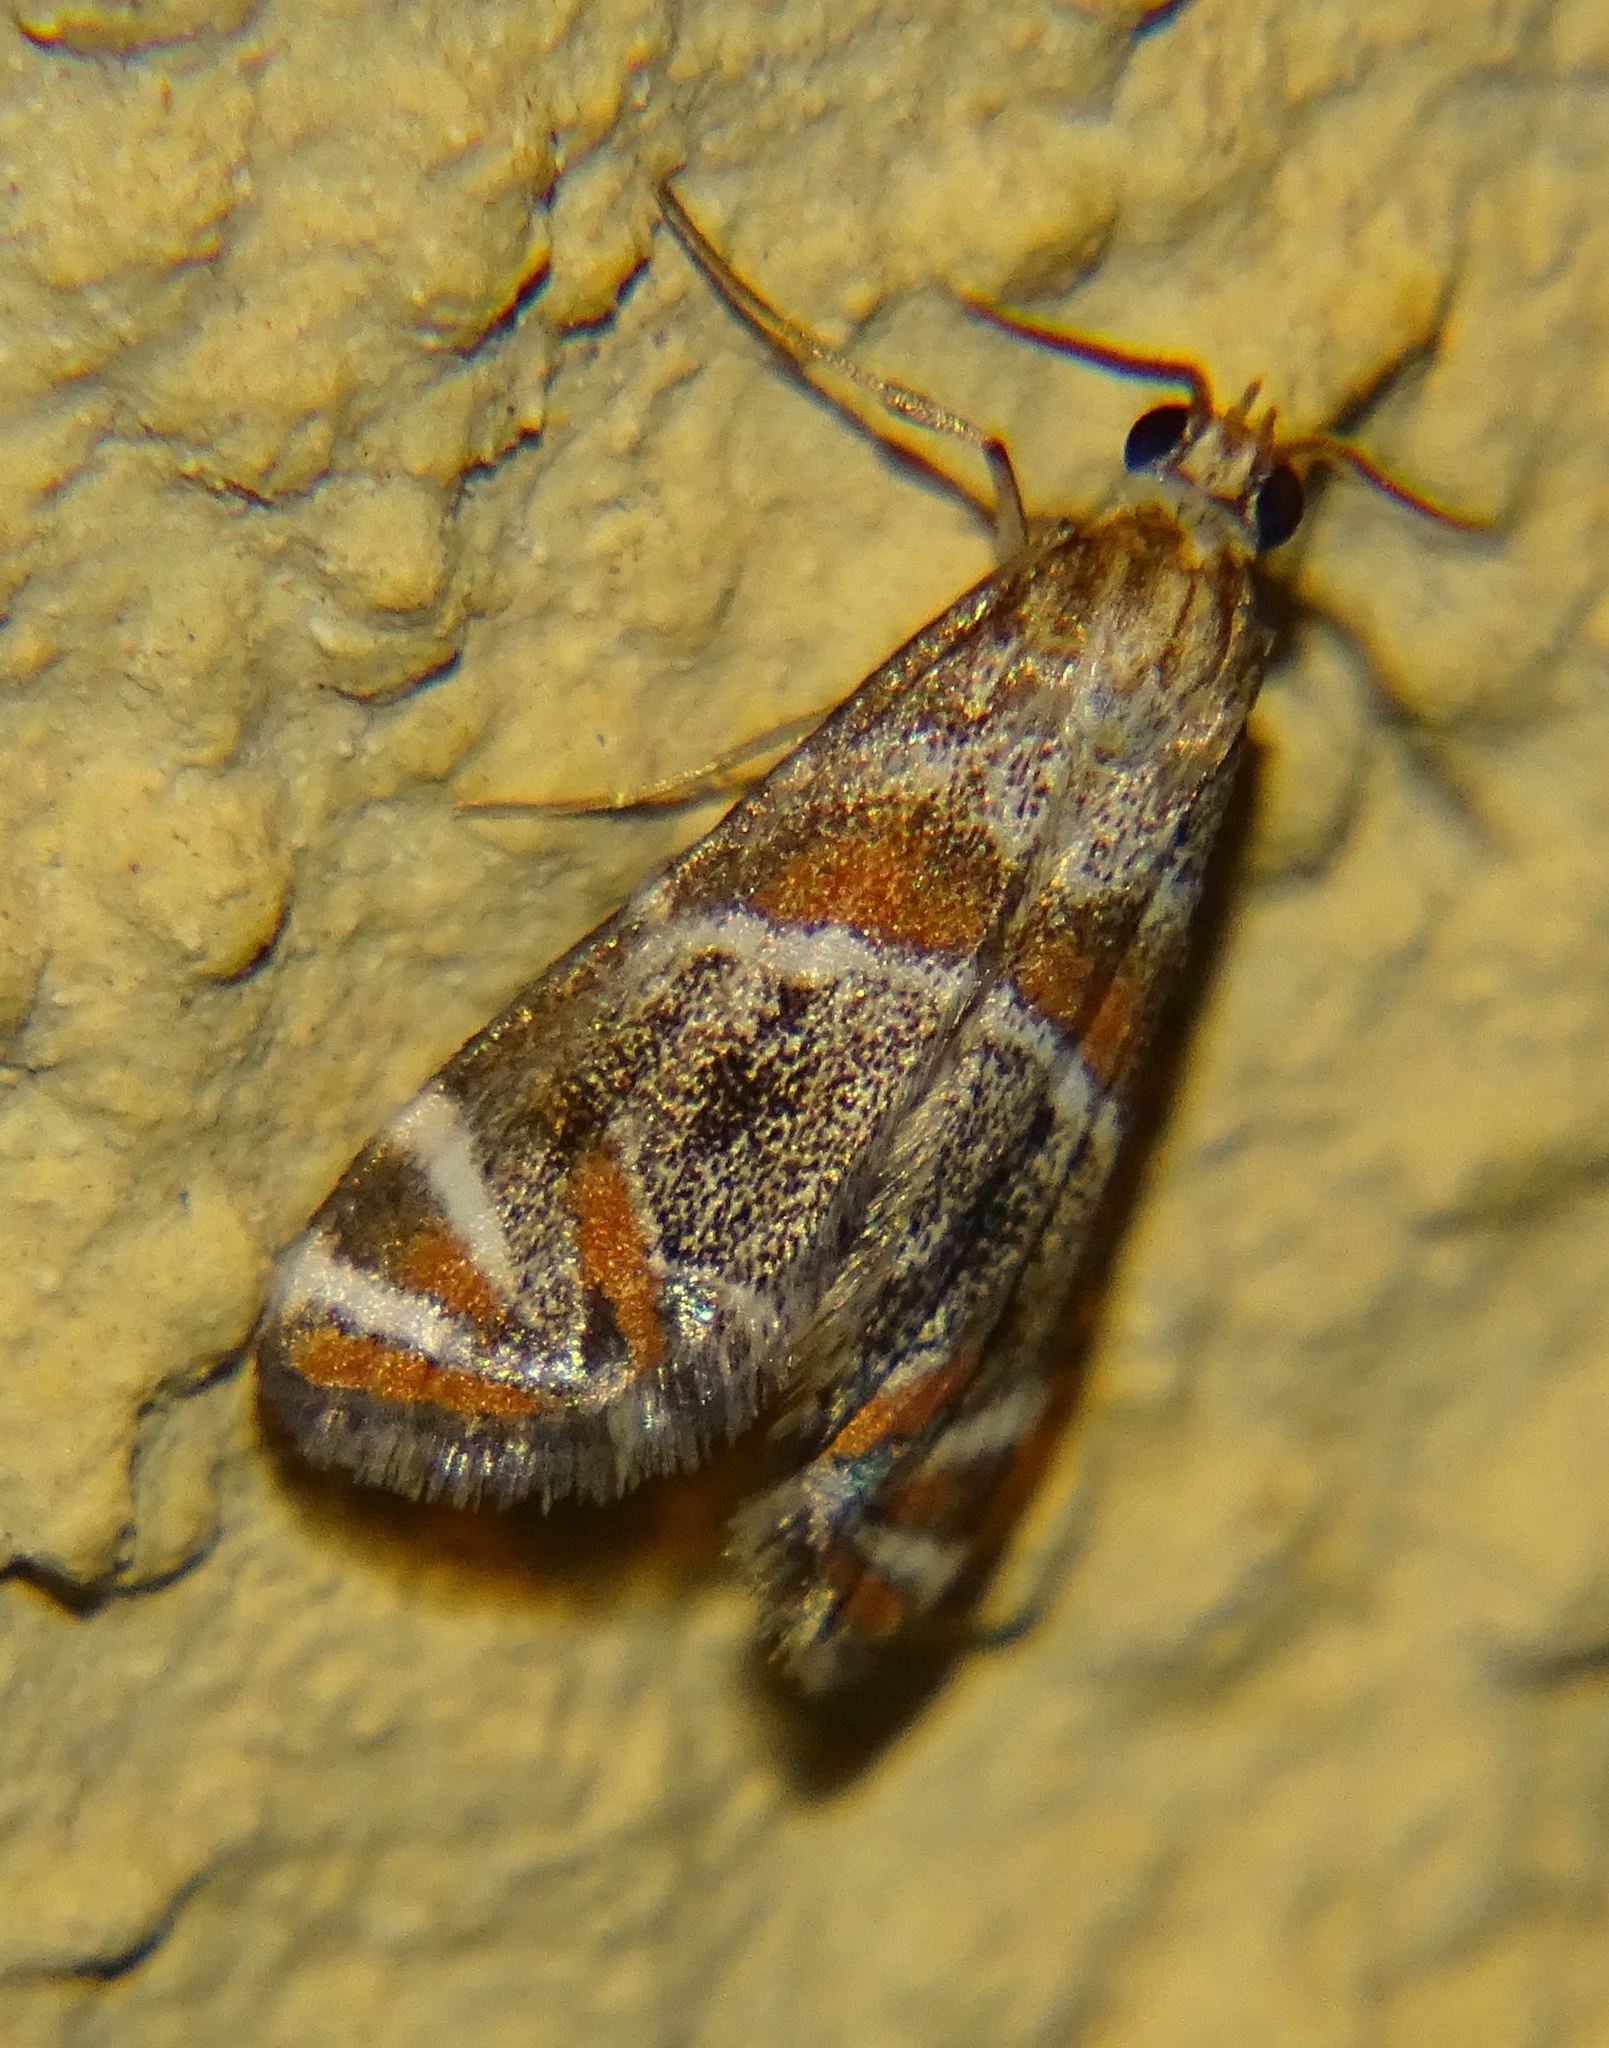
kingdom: Animalia
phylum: Arthropoda
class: Insecta
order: Lepidoptera
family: Crambidae
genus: Petrophila
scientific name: Petrophila jaliscalis
